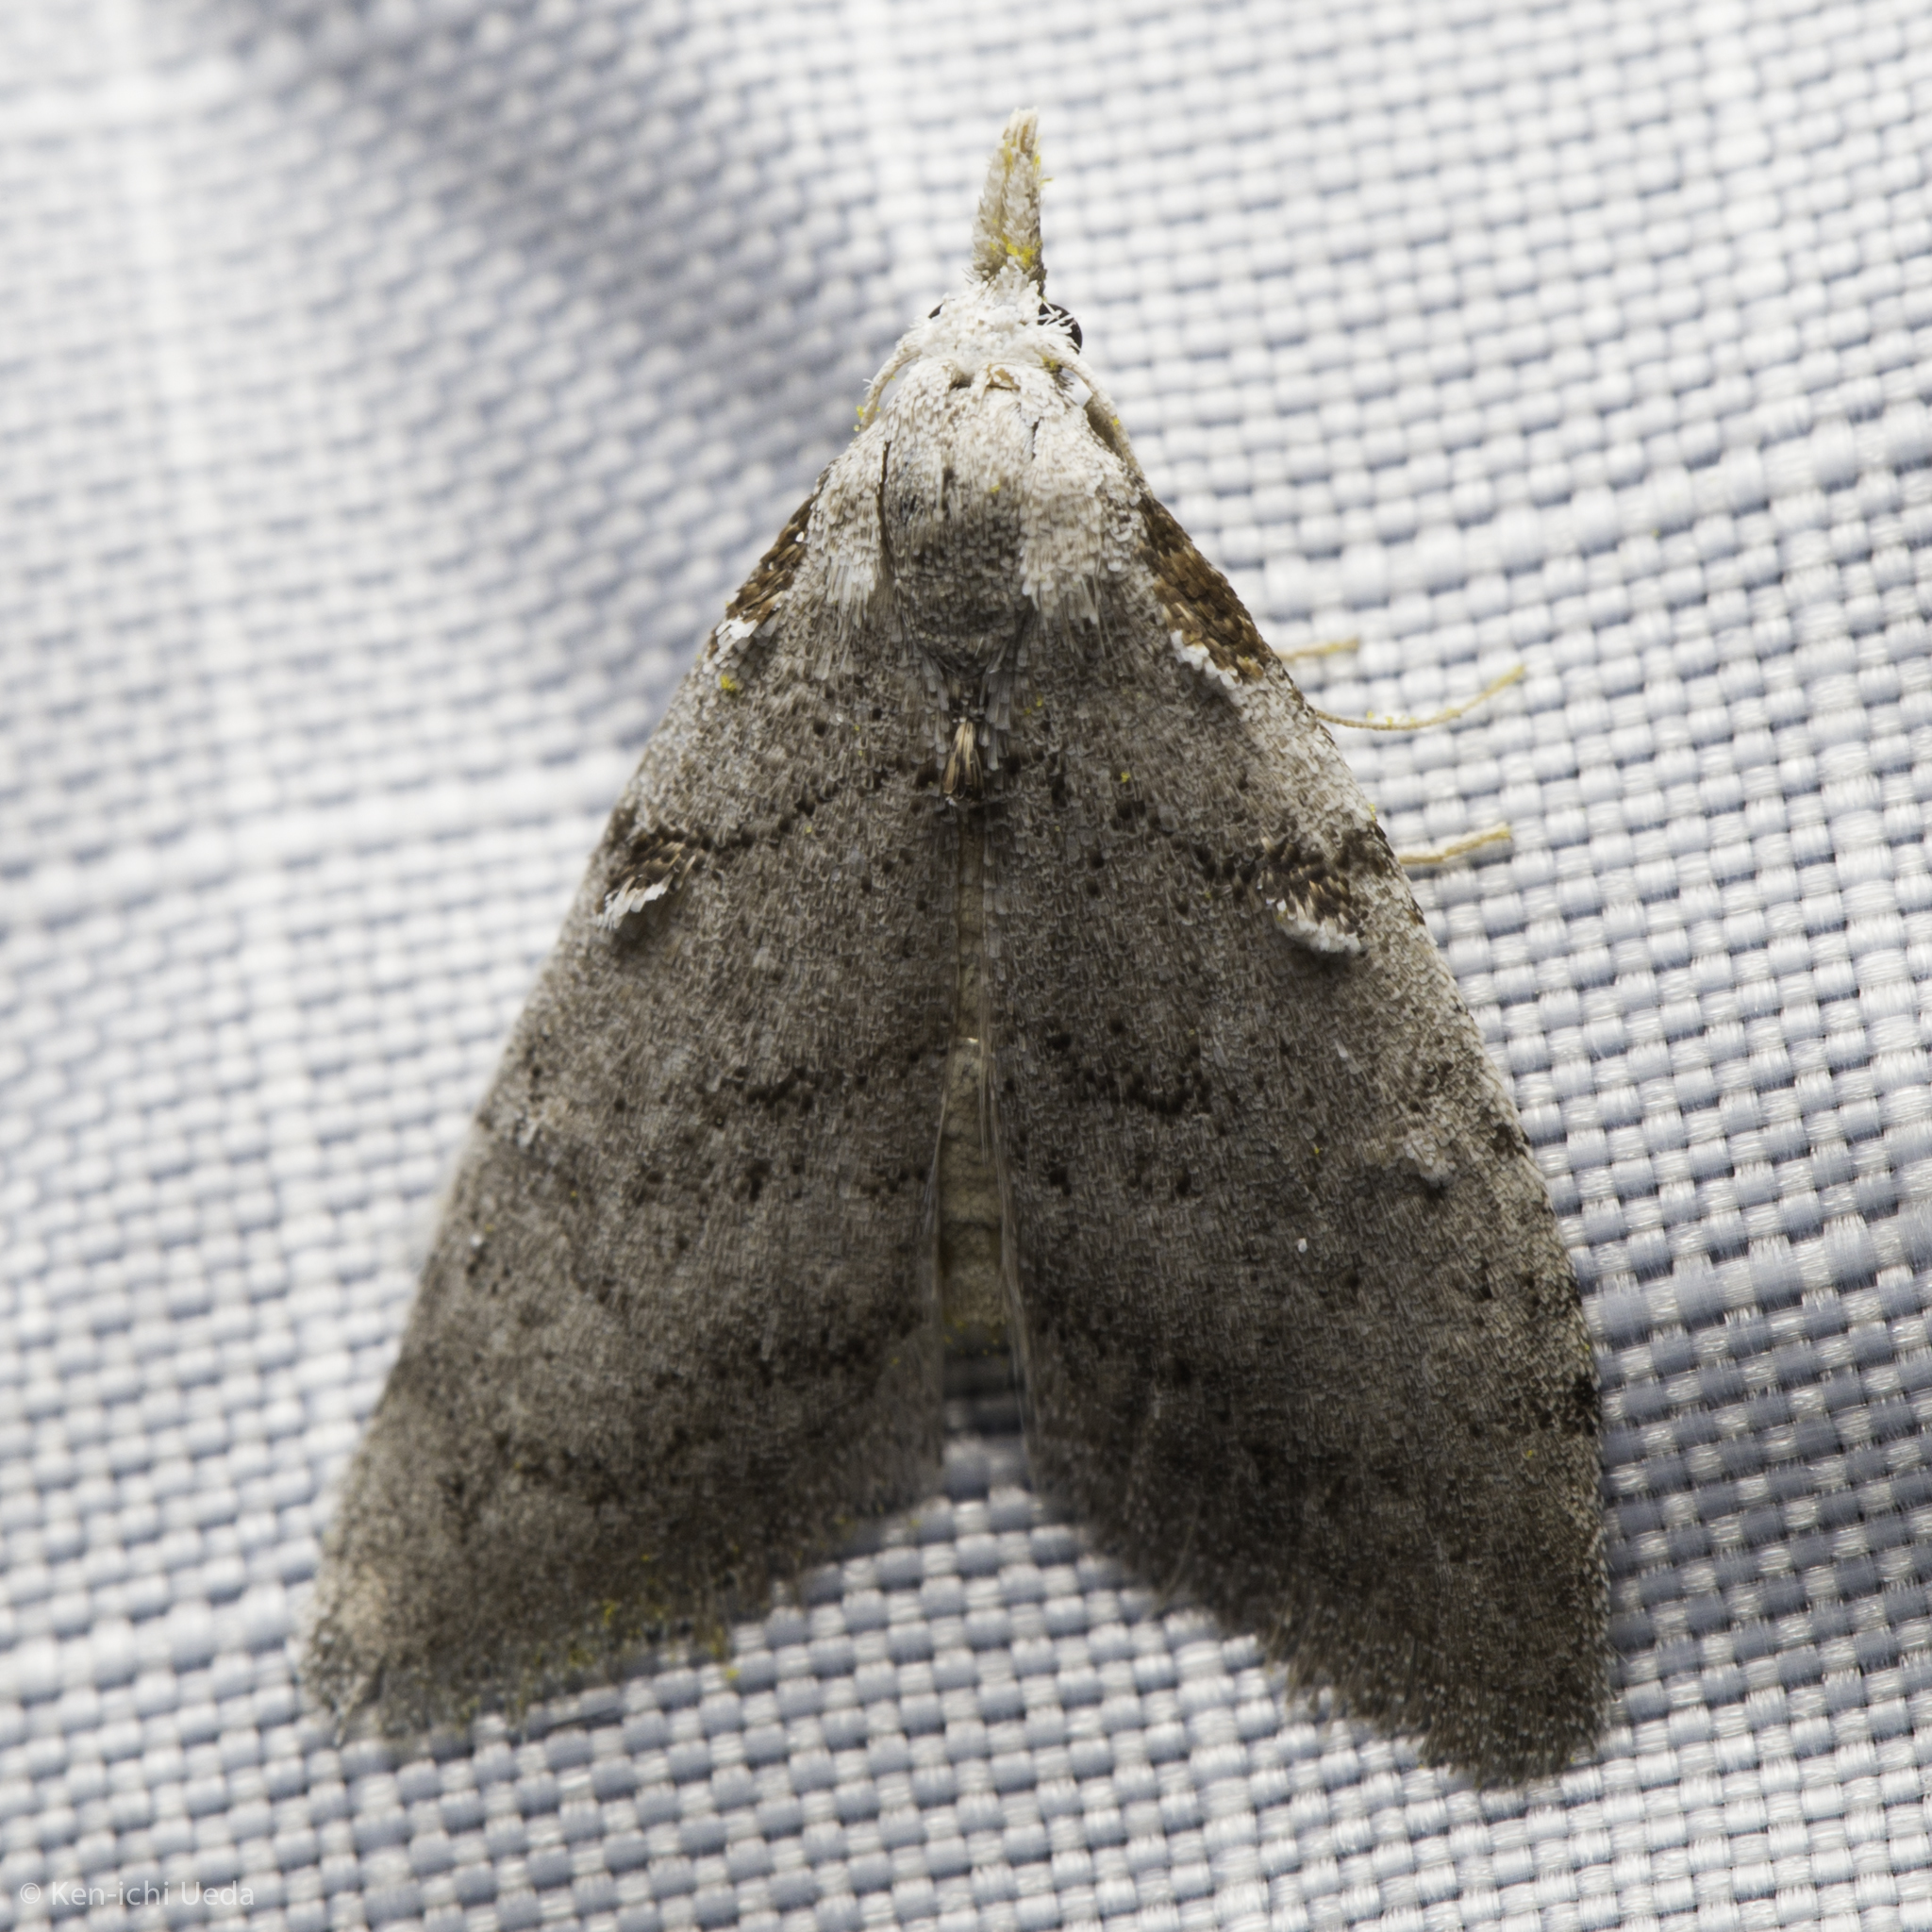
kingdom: Animalia
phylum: Arthropoda
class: Insecta
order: Lepidoptera
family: Nolidae
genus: Nola
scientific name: Nola minna
